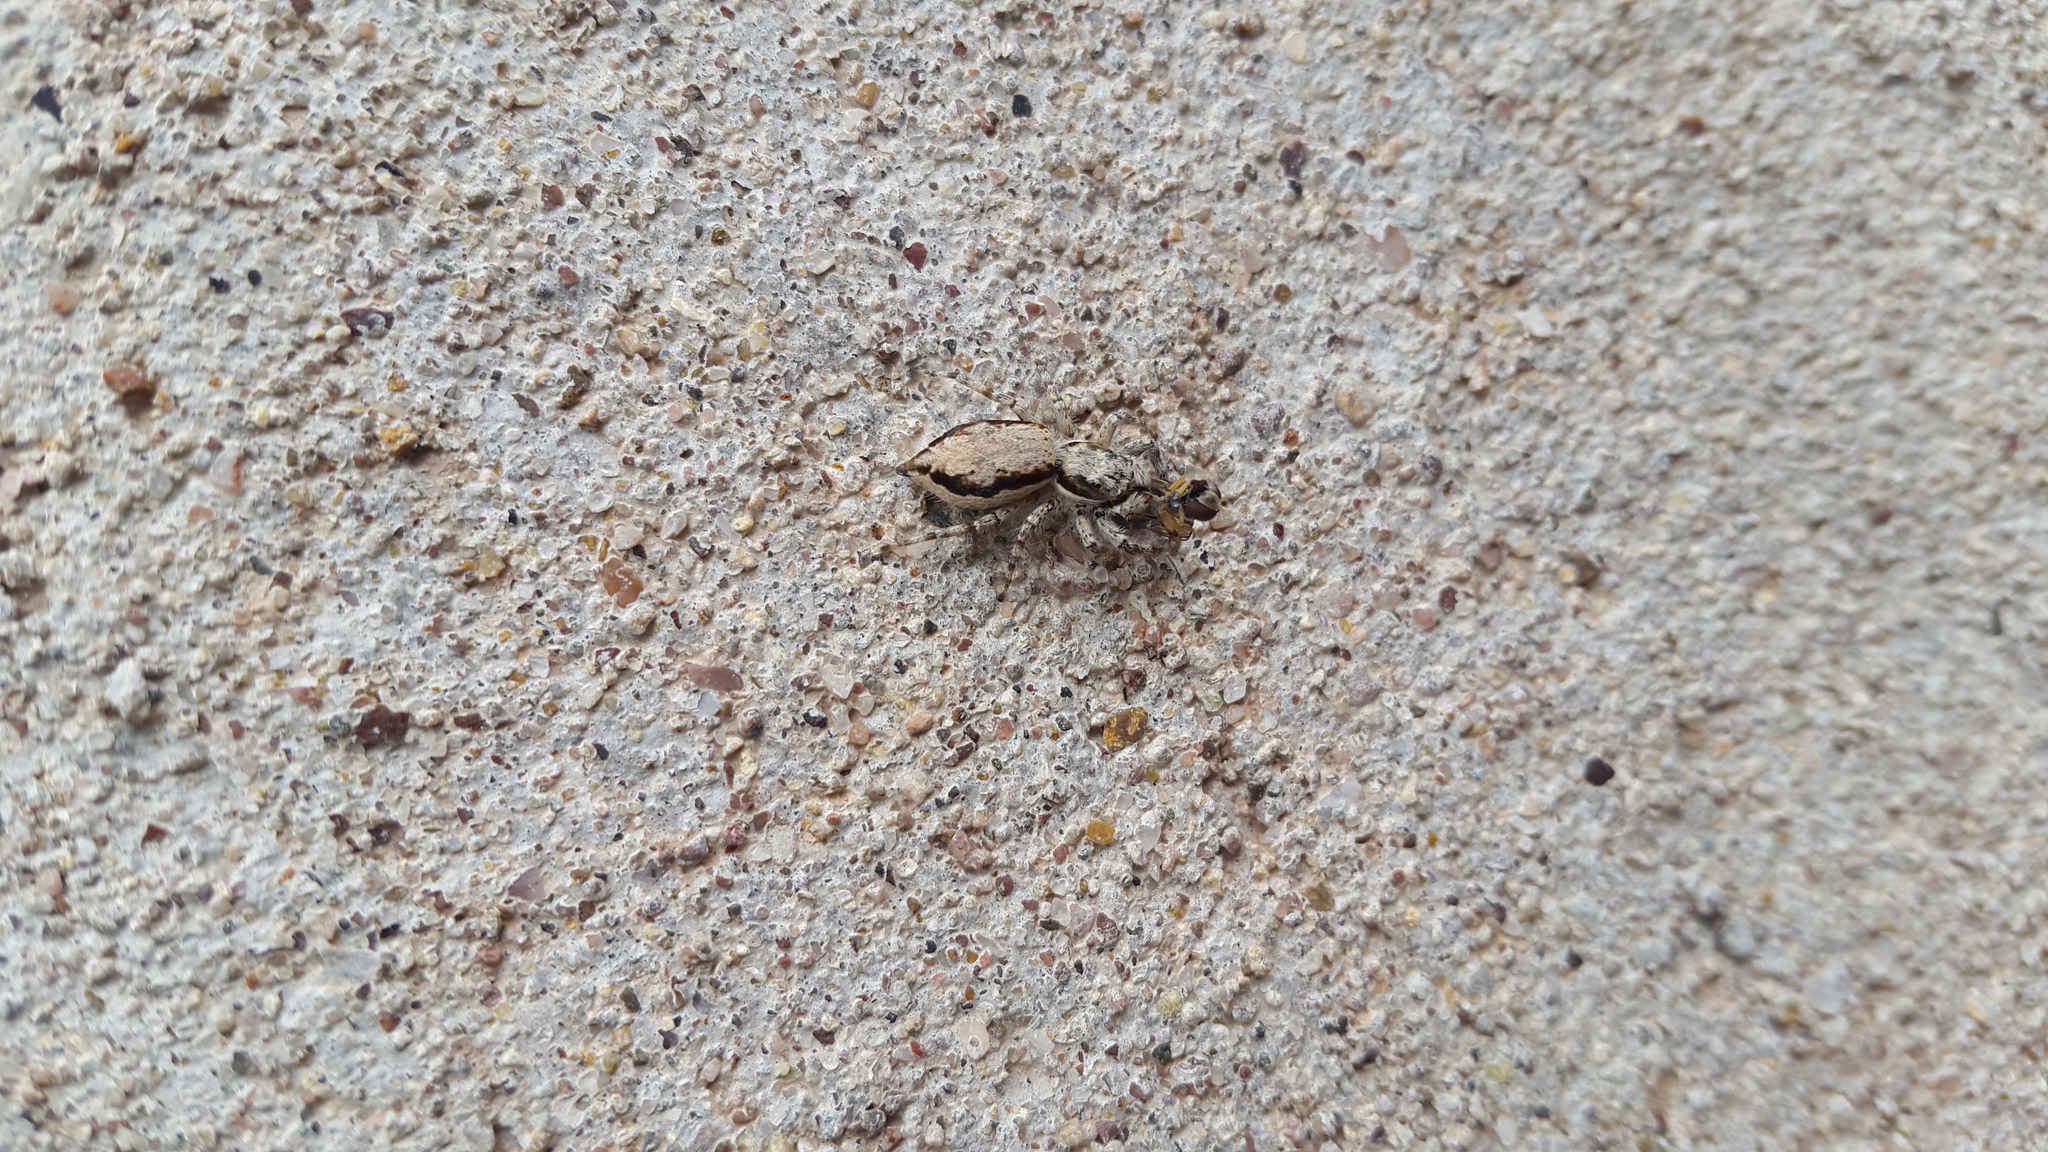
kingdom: Animalia
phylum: Arthropoda
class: Arachnida
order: Araneae
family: Salticidae
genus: Menemerus
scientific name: Menemerus bivittatus
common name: Gray wall jumper
